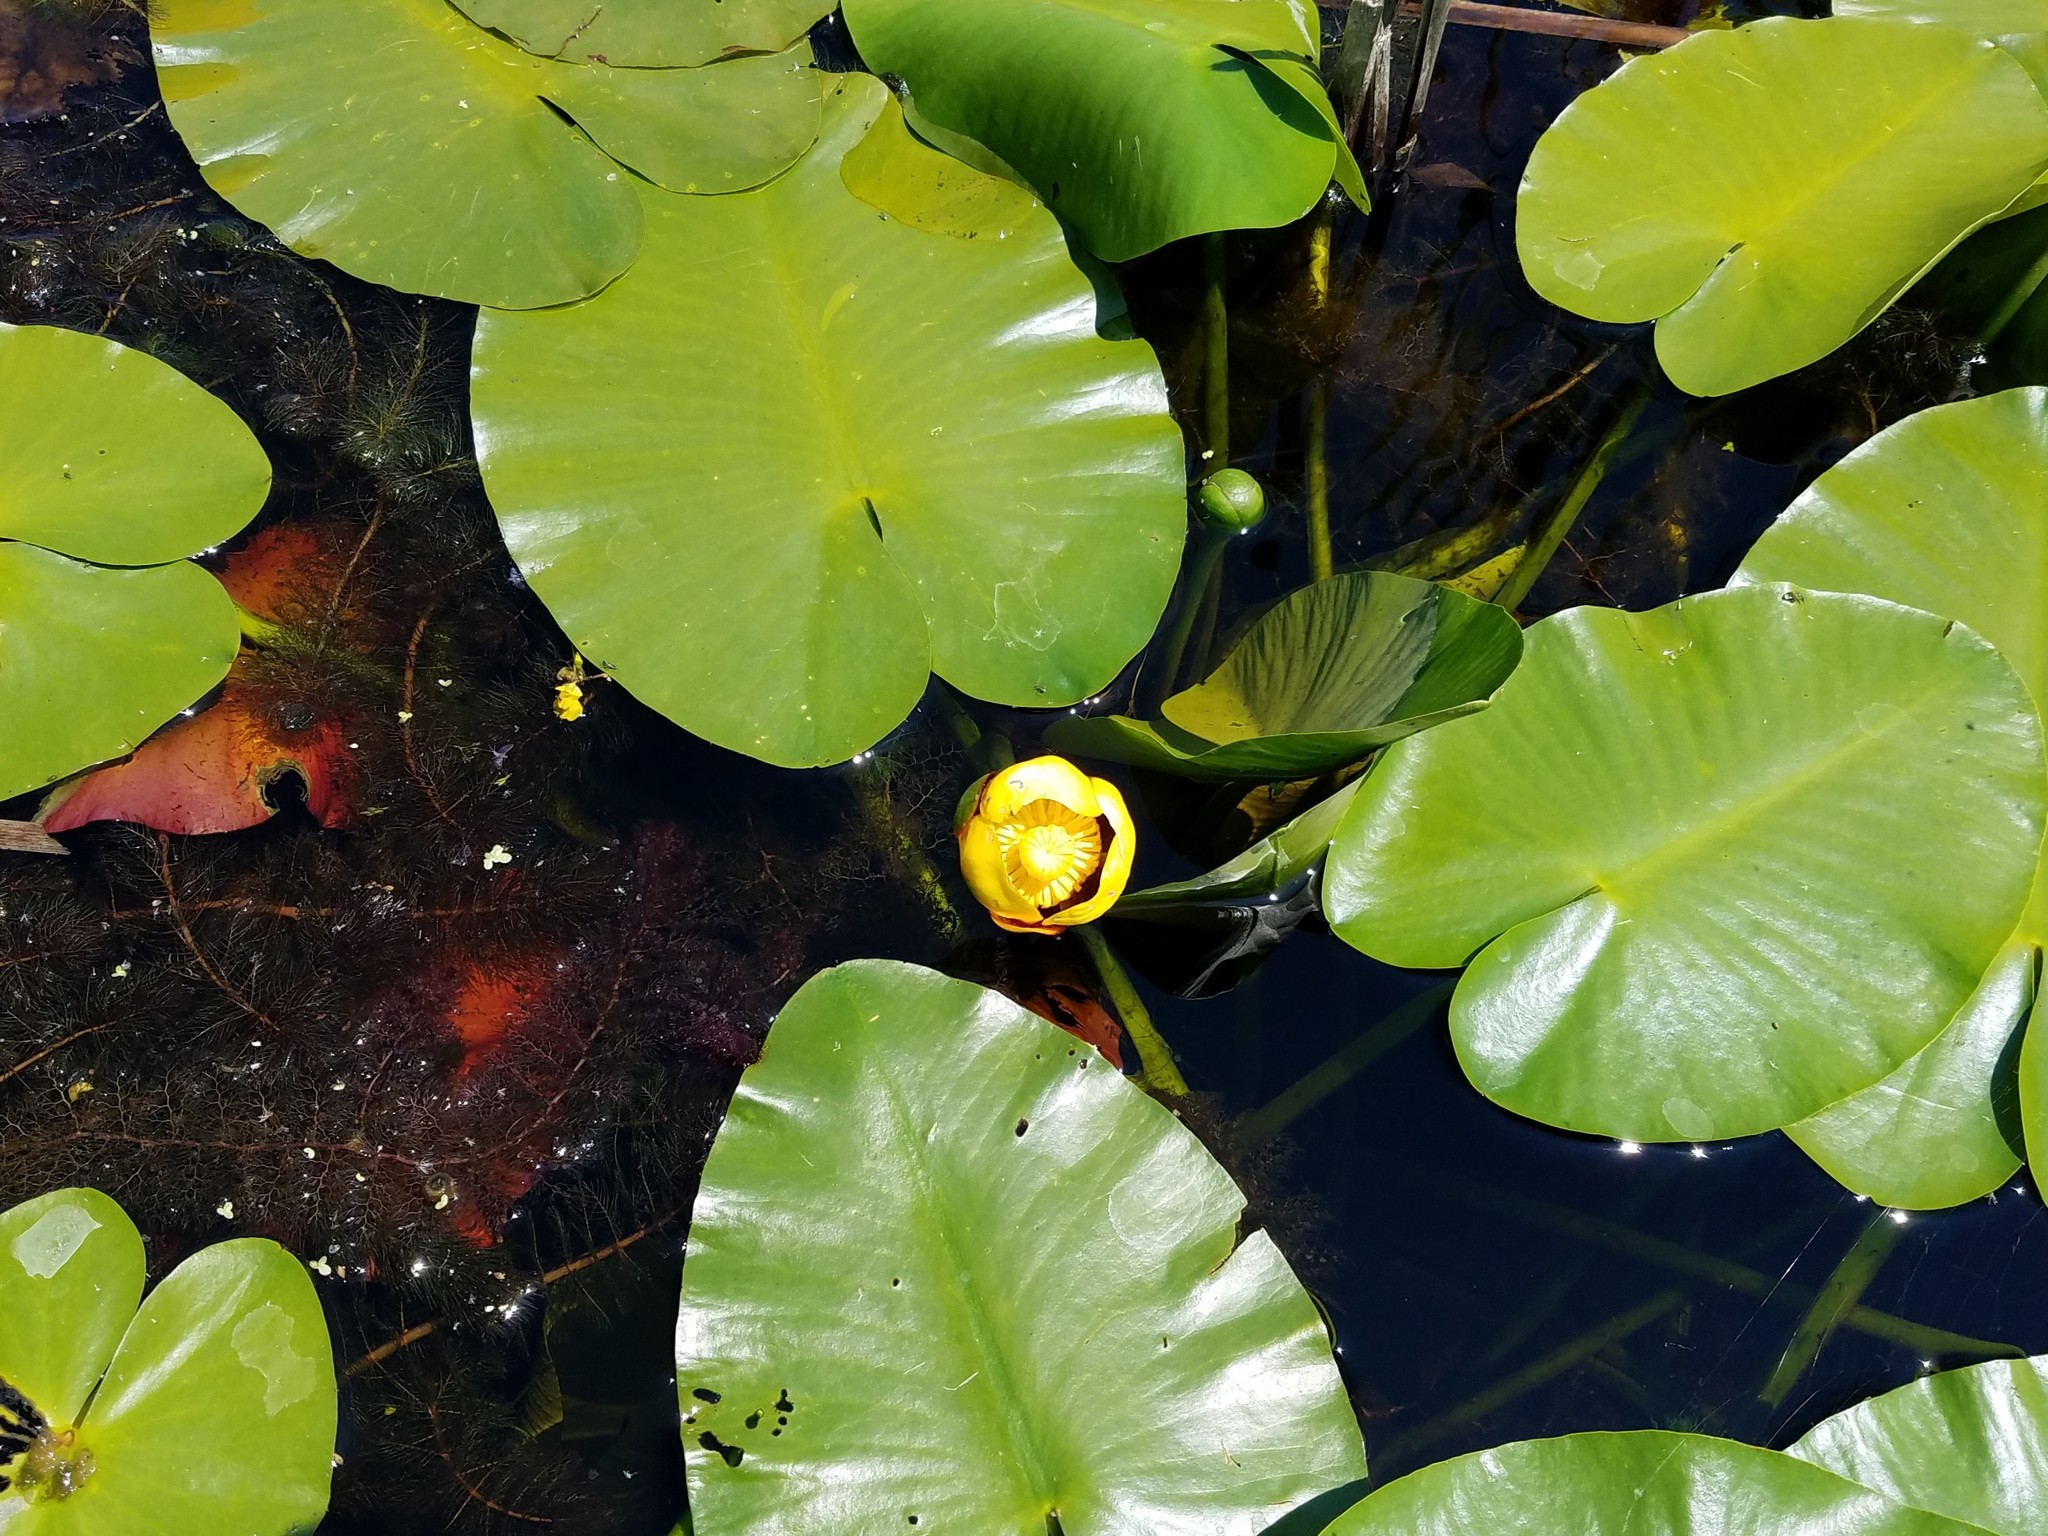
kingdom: Plantae
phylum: Tracheophyta
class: Magnoliopsida
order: Nymphaeales
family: Nymphaeaceae
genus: Nuphar
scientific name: Nuphar variegata
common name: Beaver-root
